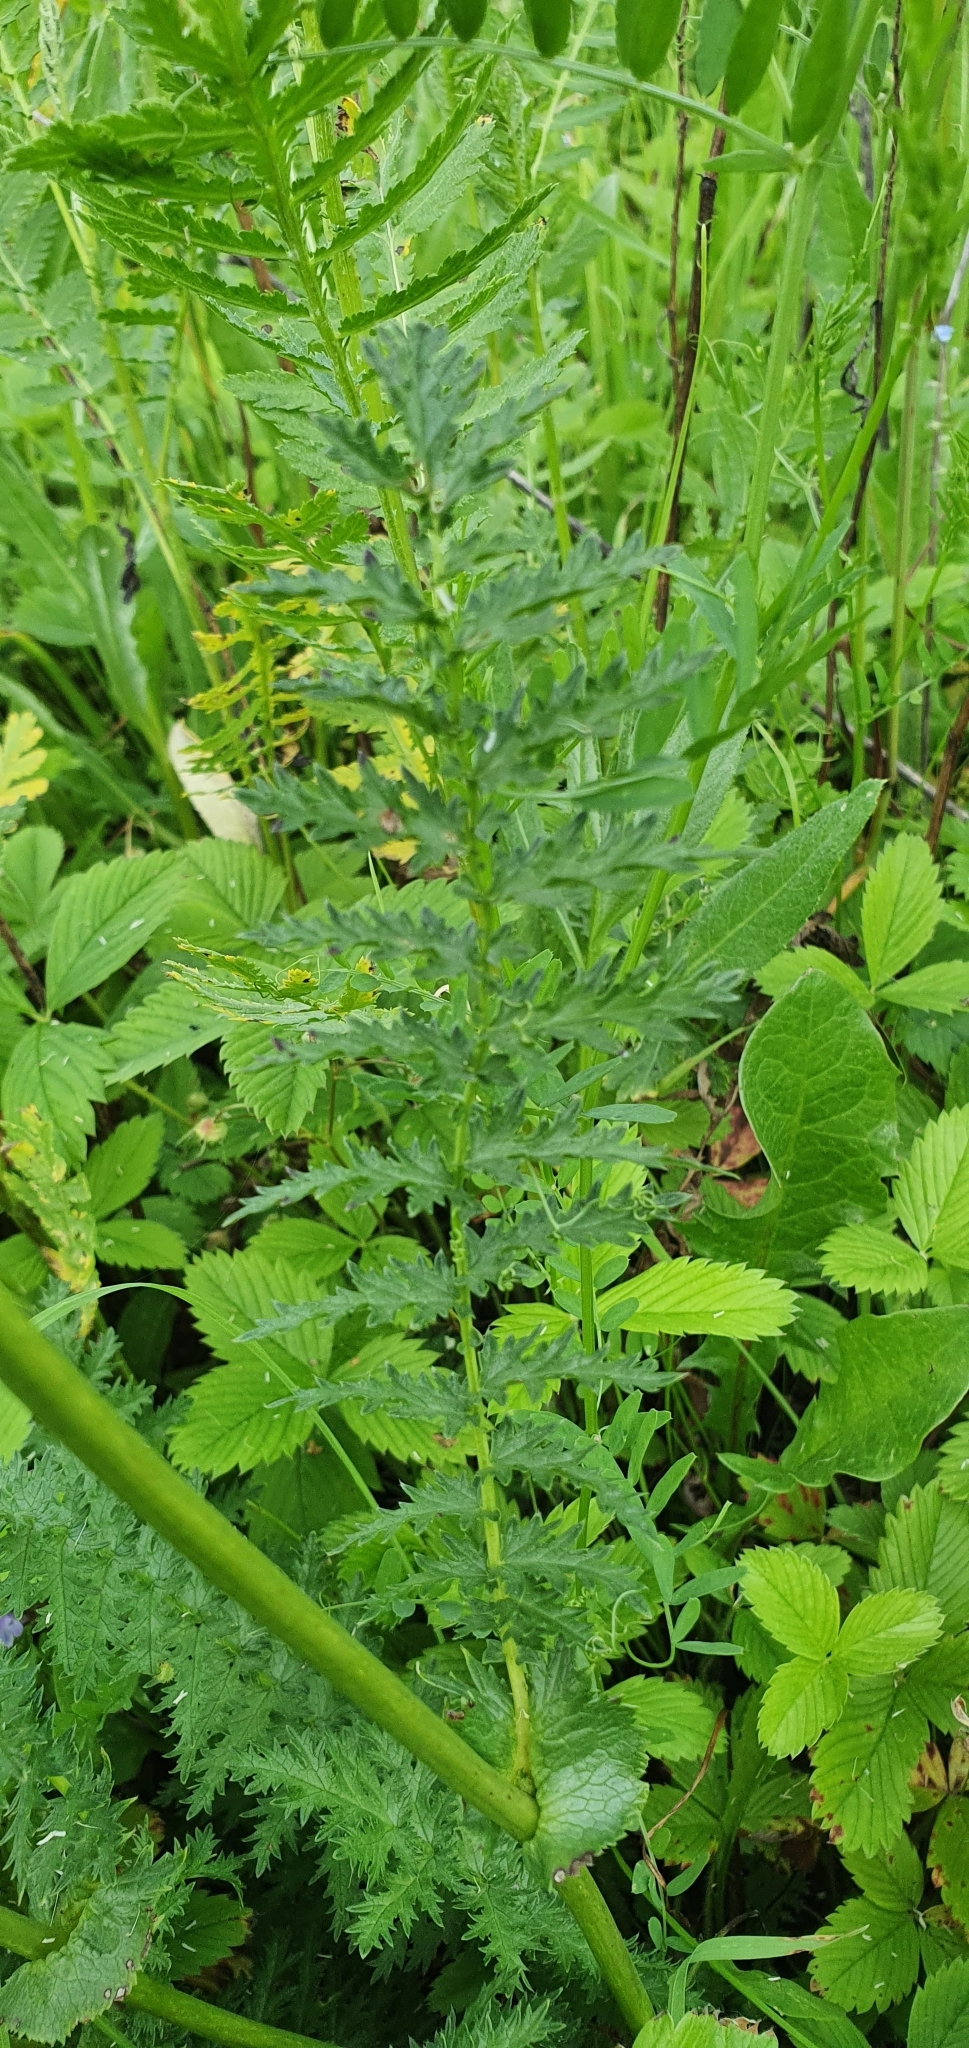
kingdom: Plantae
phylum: Tracheophyta
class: Magnoliopsida
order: Rosales
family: Rosaceae
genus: Filipendula
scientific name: Filipendula vulgaris
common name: Dropwort
